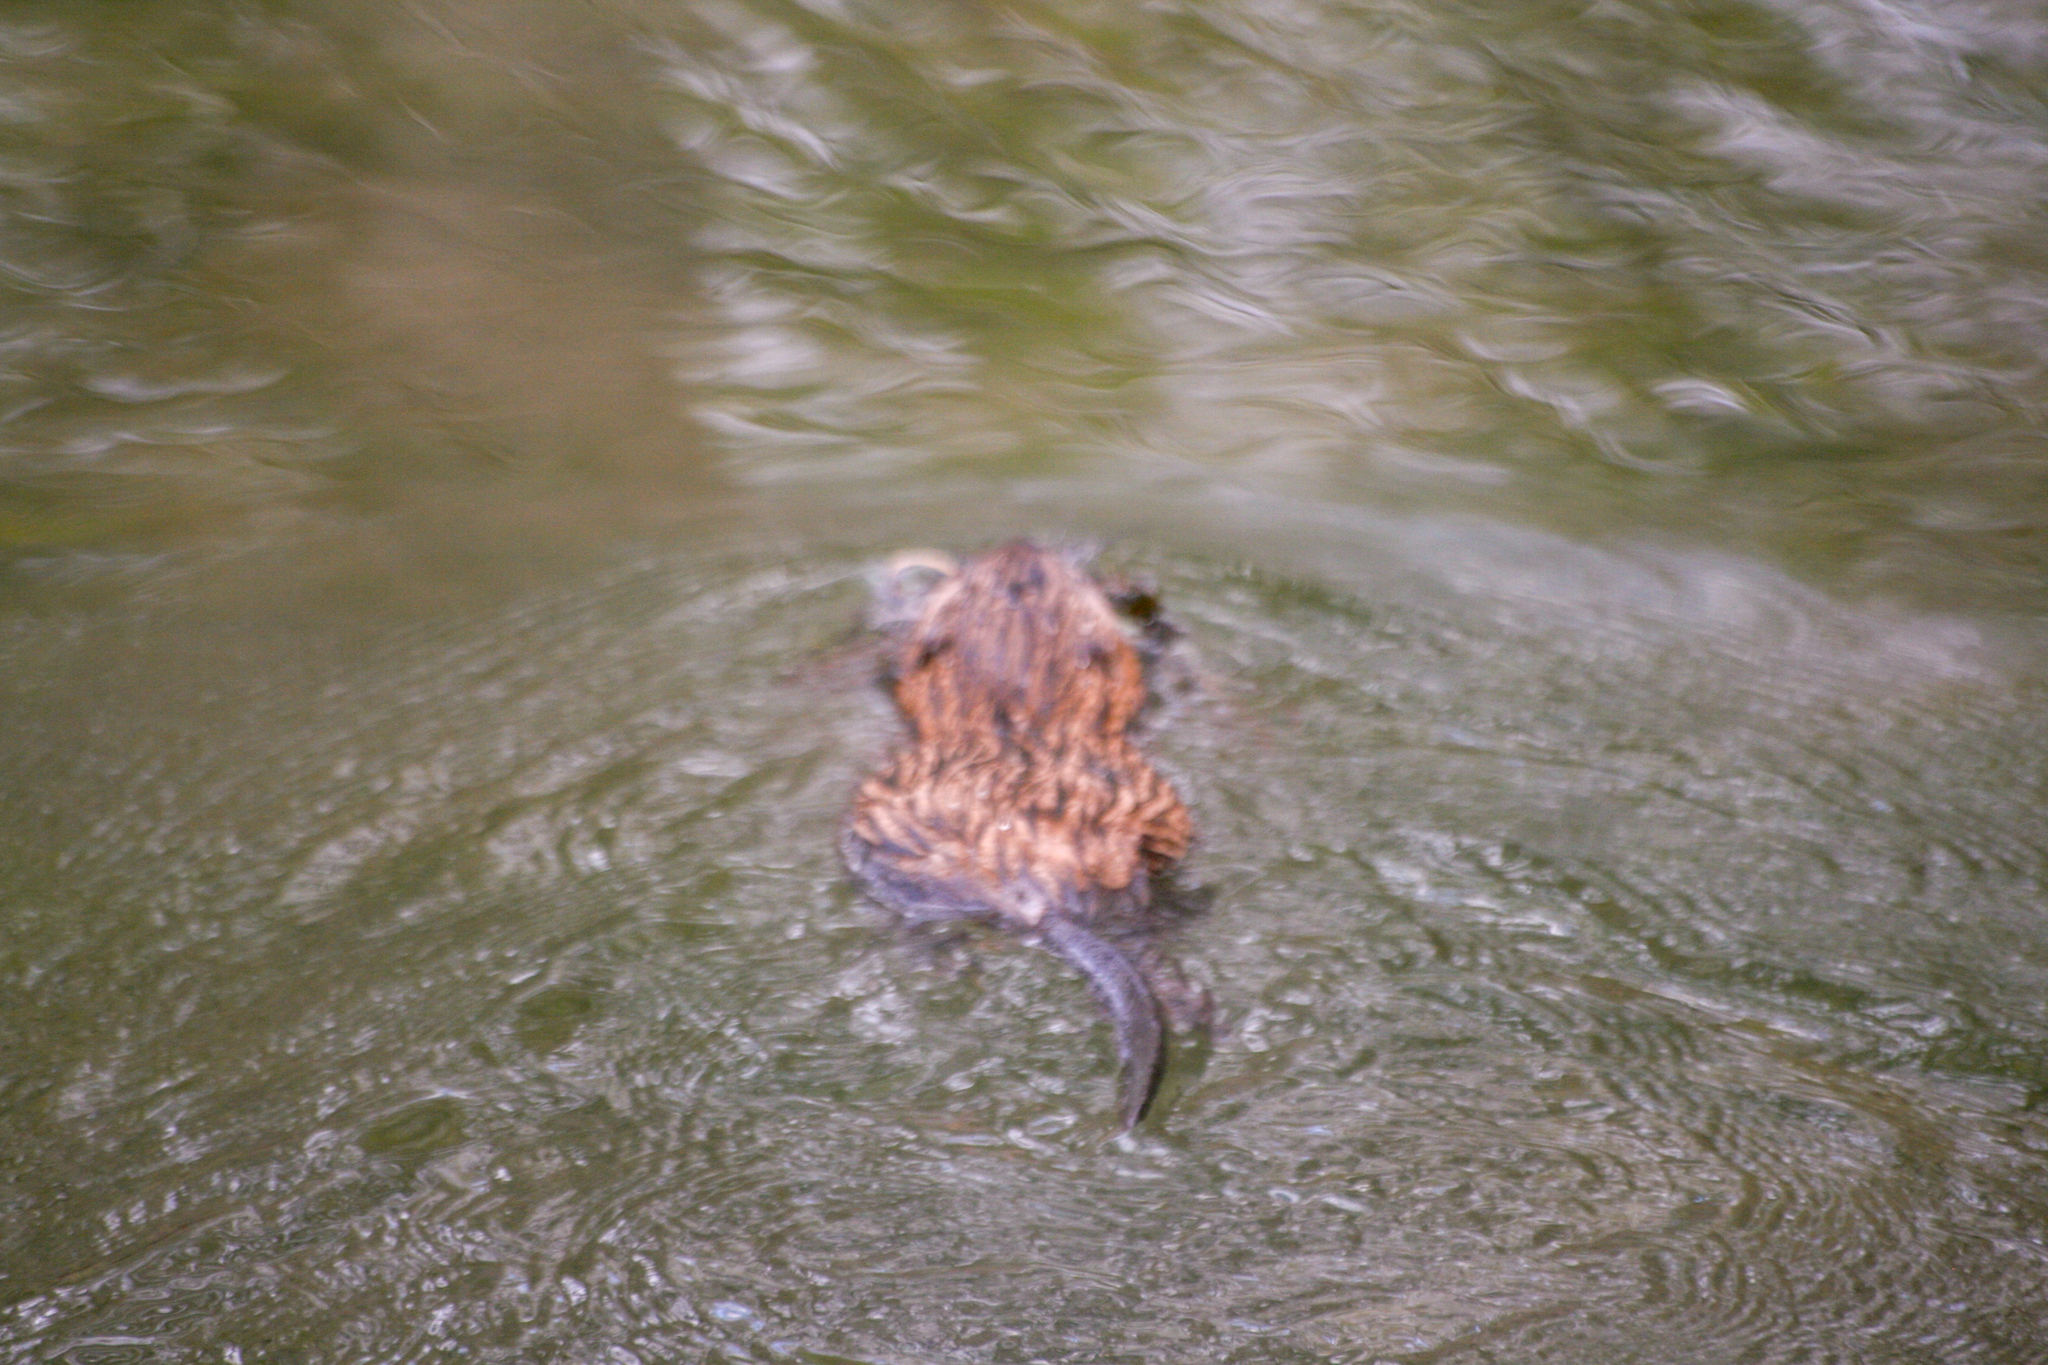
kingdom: Animalia
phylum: Chordata
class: Mammalia
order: Rodentia
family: Cricetidae
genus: Ondatra
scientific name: Ondatra zibethicus
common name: Muskrat
